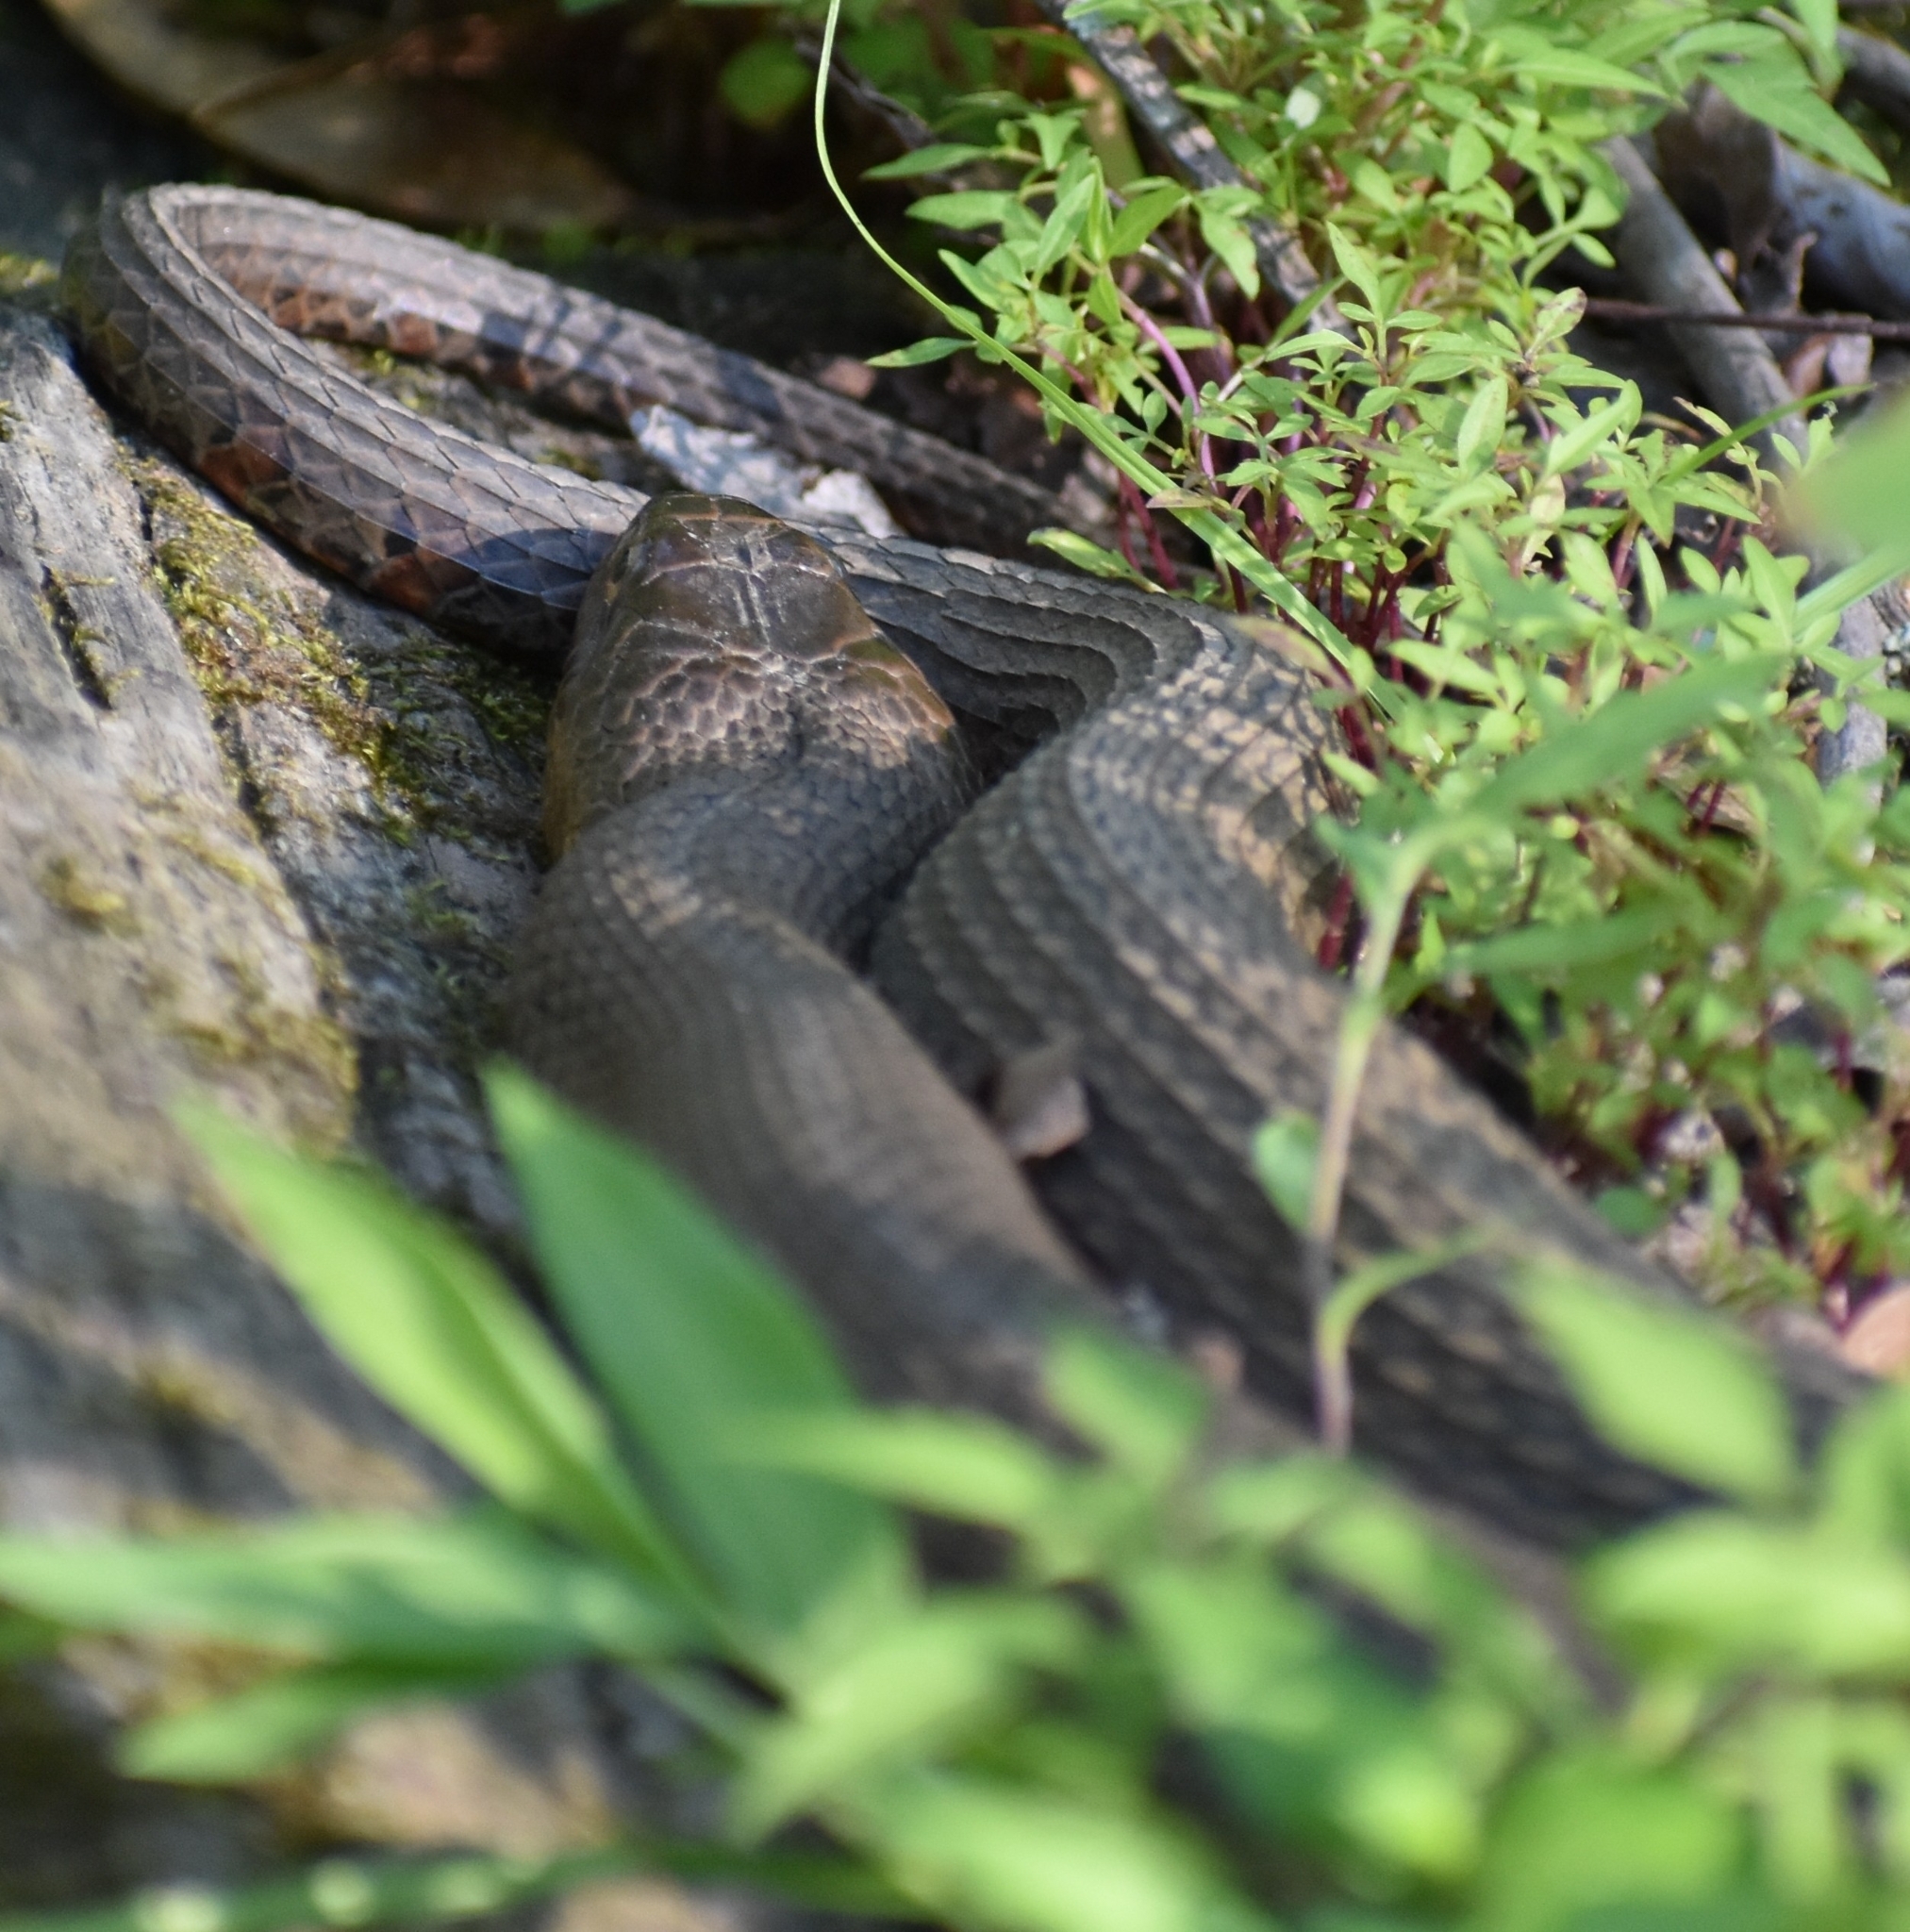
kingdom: Animalia
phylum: Chordata
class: Squamata
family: Colubridae
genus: Nerodia
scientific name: Nerodia sipedon
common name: Northern water snake
